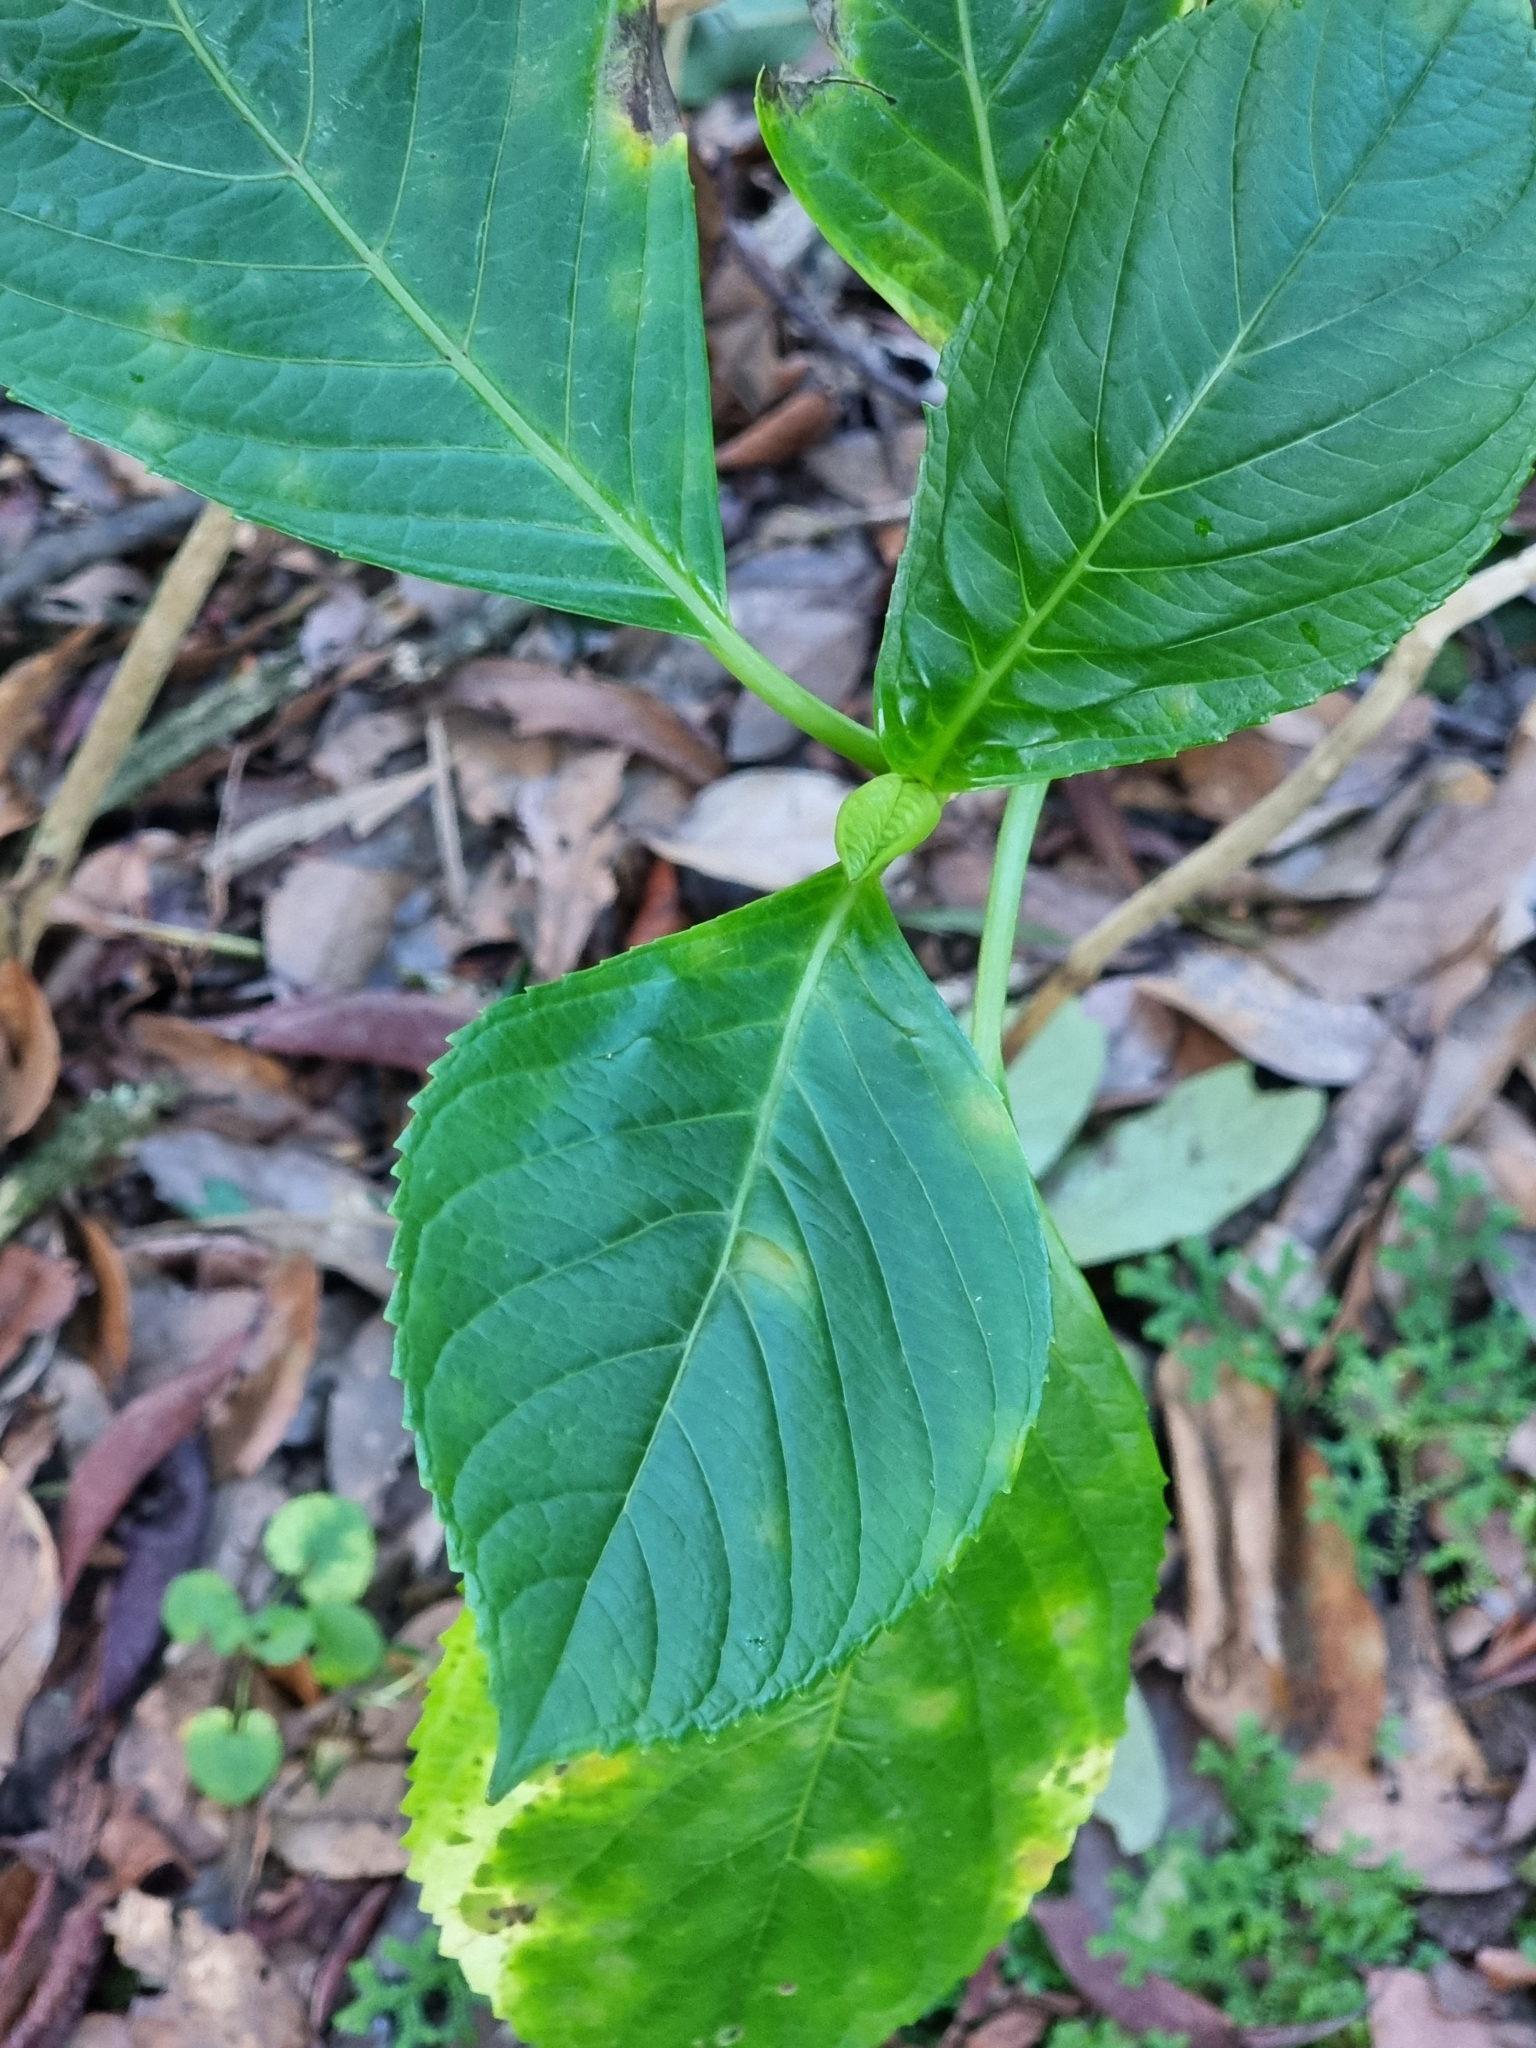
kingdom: Plantae
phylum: Tracheophyta
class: Magnoliopsida
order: Cornales
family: Hydrangeaceae
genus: Hydrangea
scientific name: Hydrangea macrophylla
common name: Hydrangea
